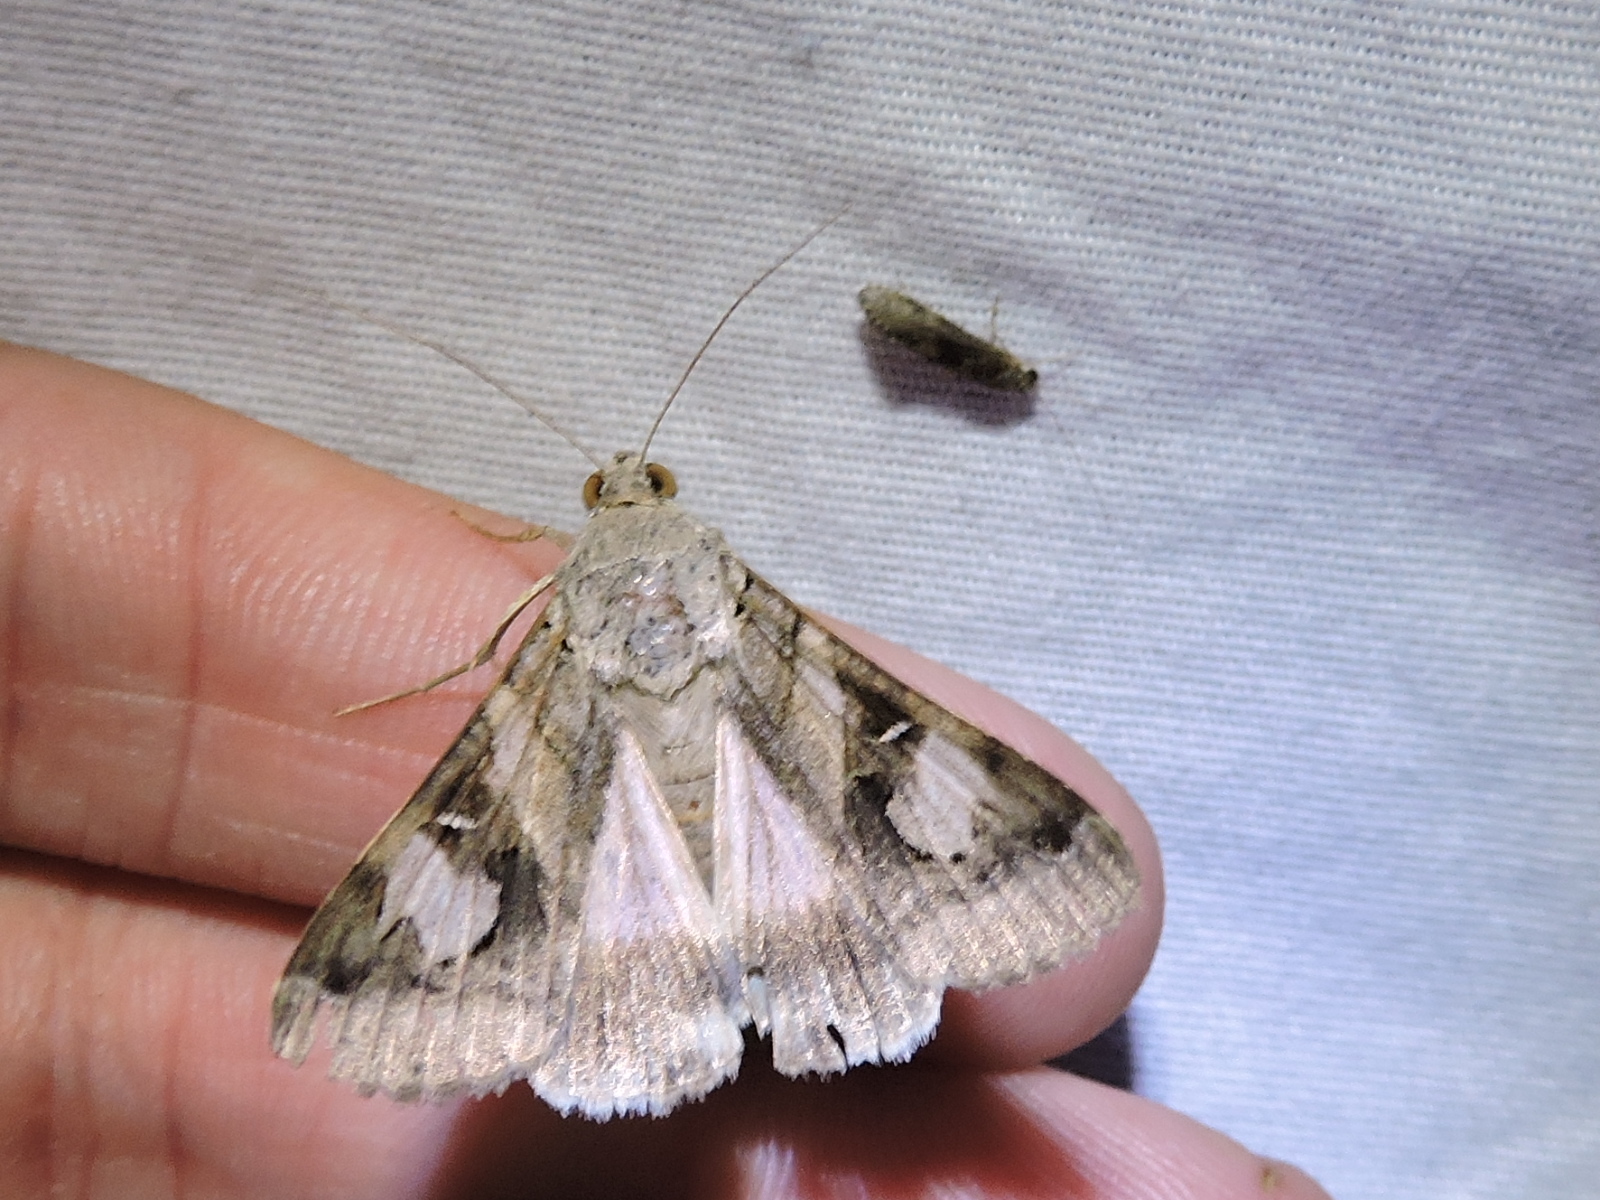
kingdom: Animalia
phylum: Arthropoda
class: Insecta
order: Lepidoptera
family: Erebidae
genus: Melipotis
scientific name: Melipotis indomita
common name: Moth
